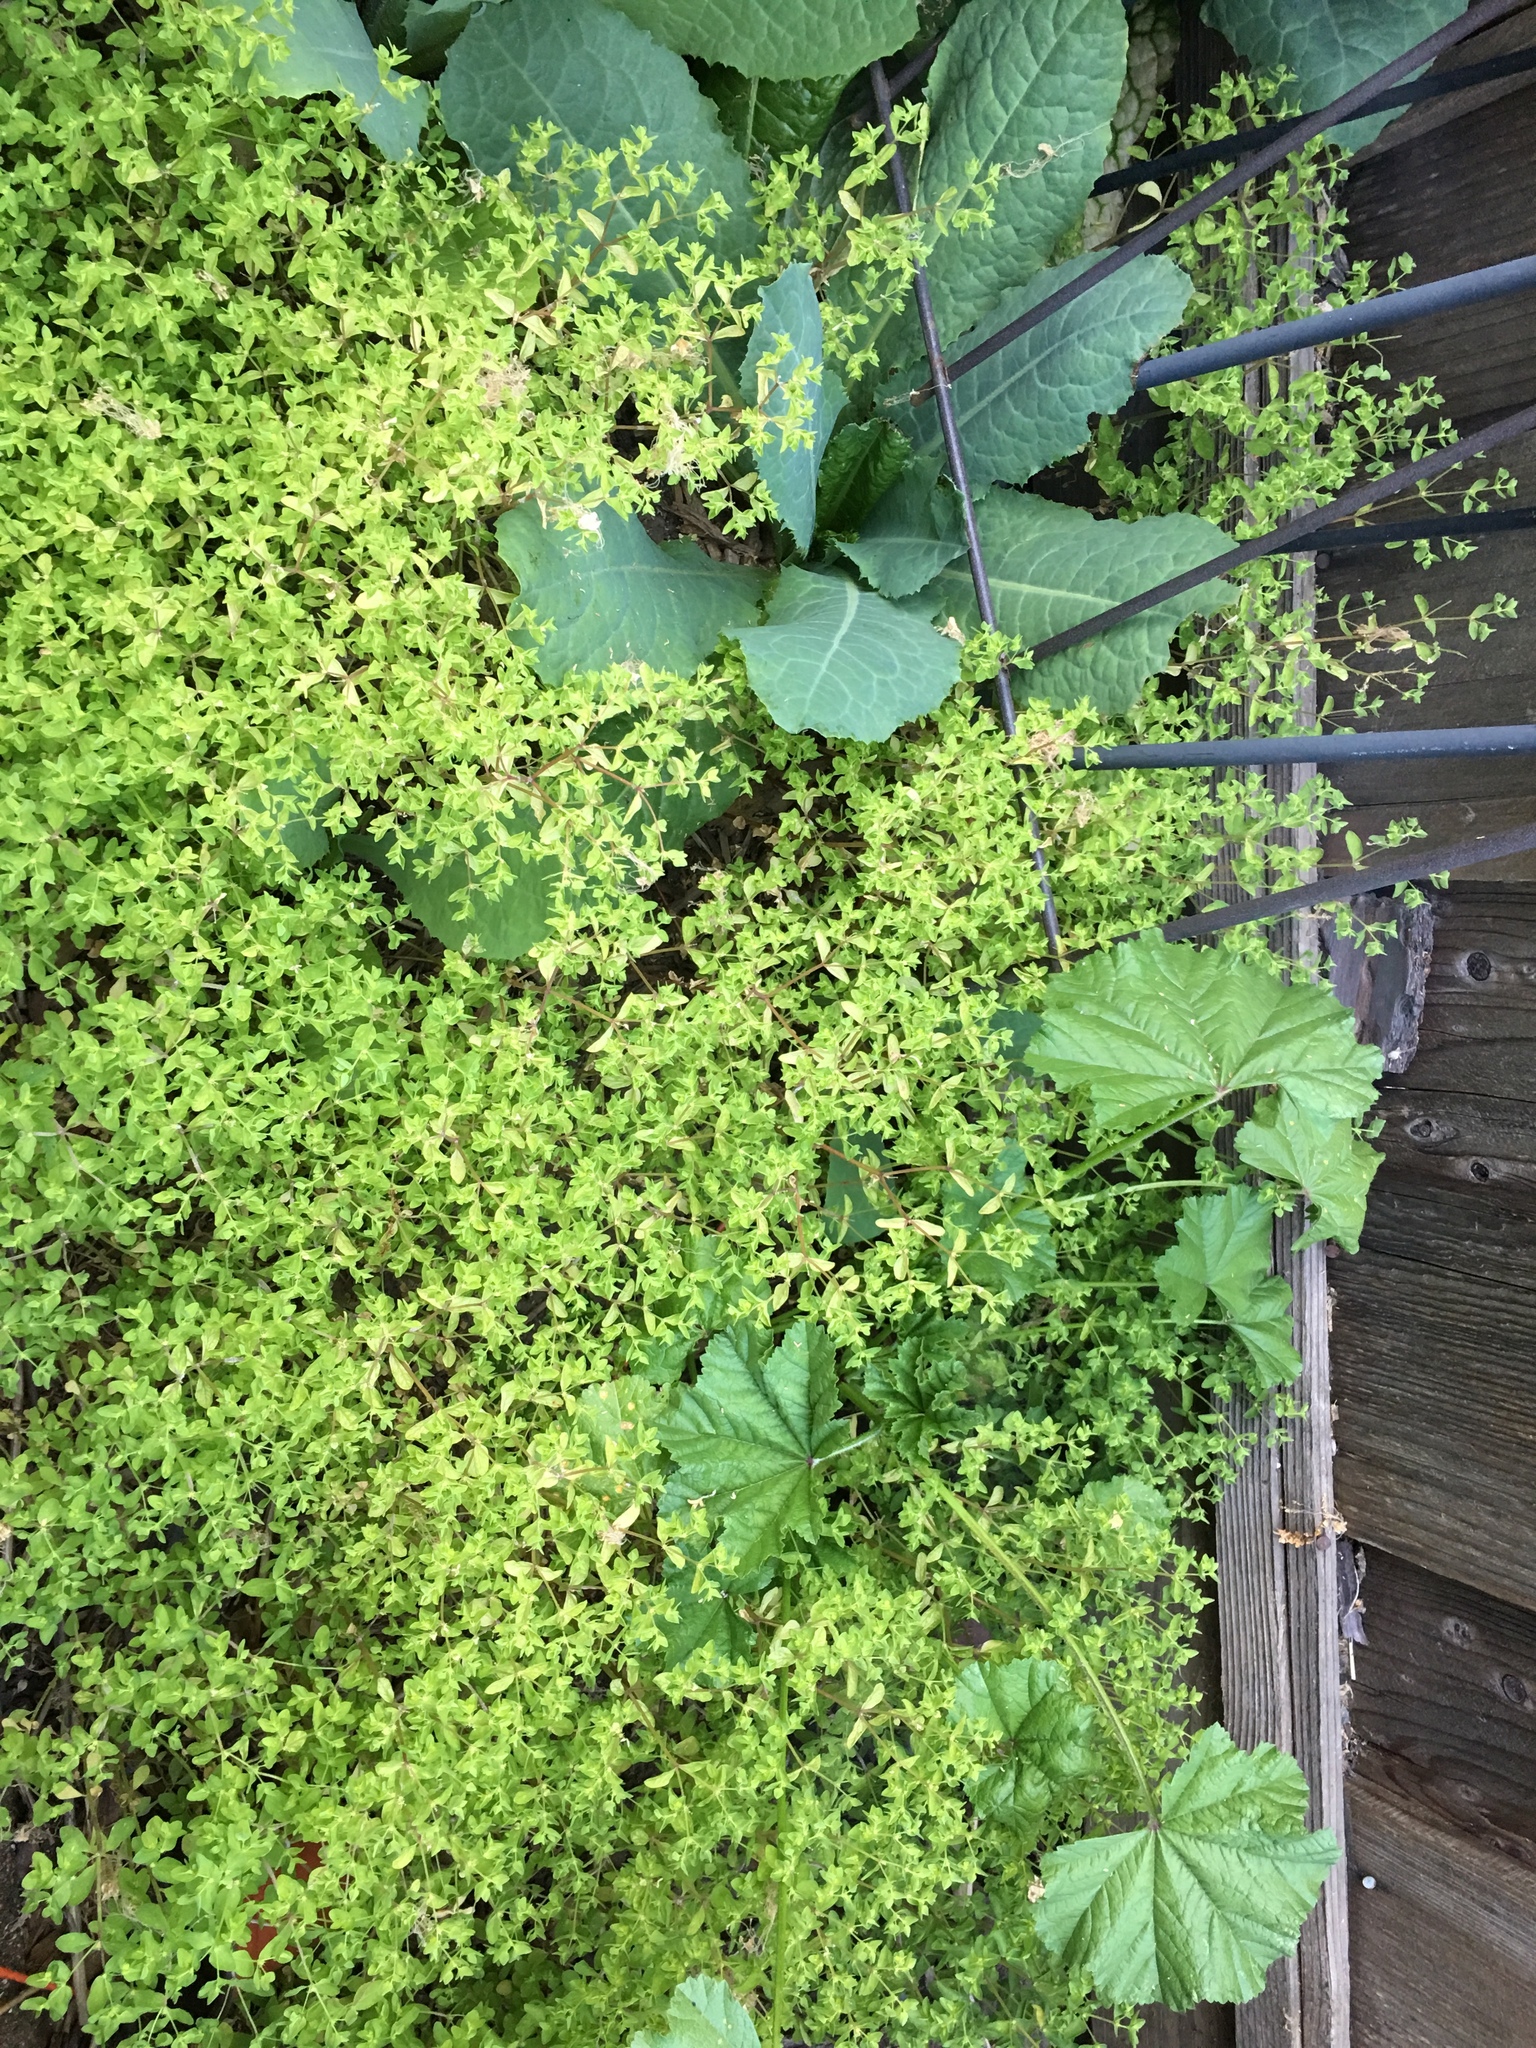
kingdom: Plantae
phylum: Tracheophyta
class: Magnoliopsida
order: Malpighiales
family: Euphorbiaceae
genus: Euphorbia
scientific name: Euphorbia peplus
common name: Petty spurge
